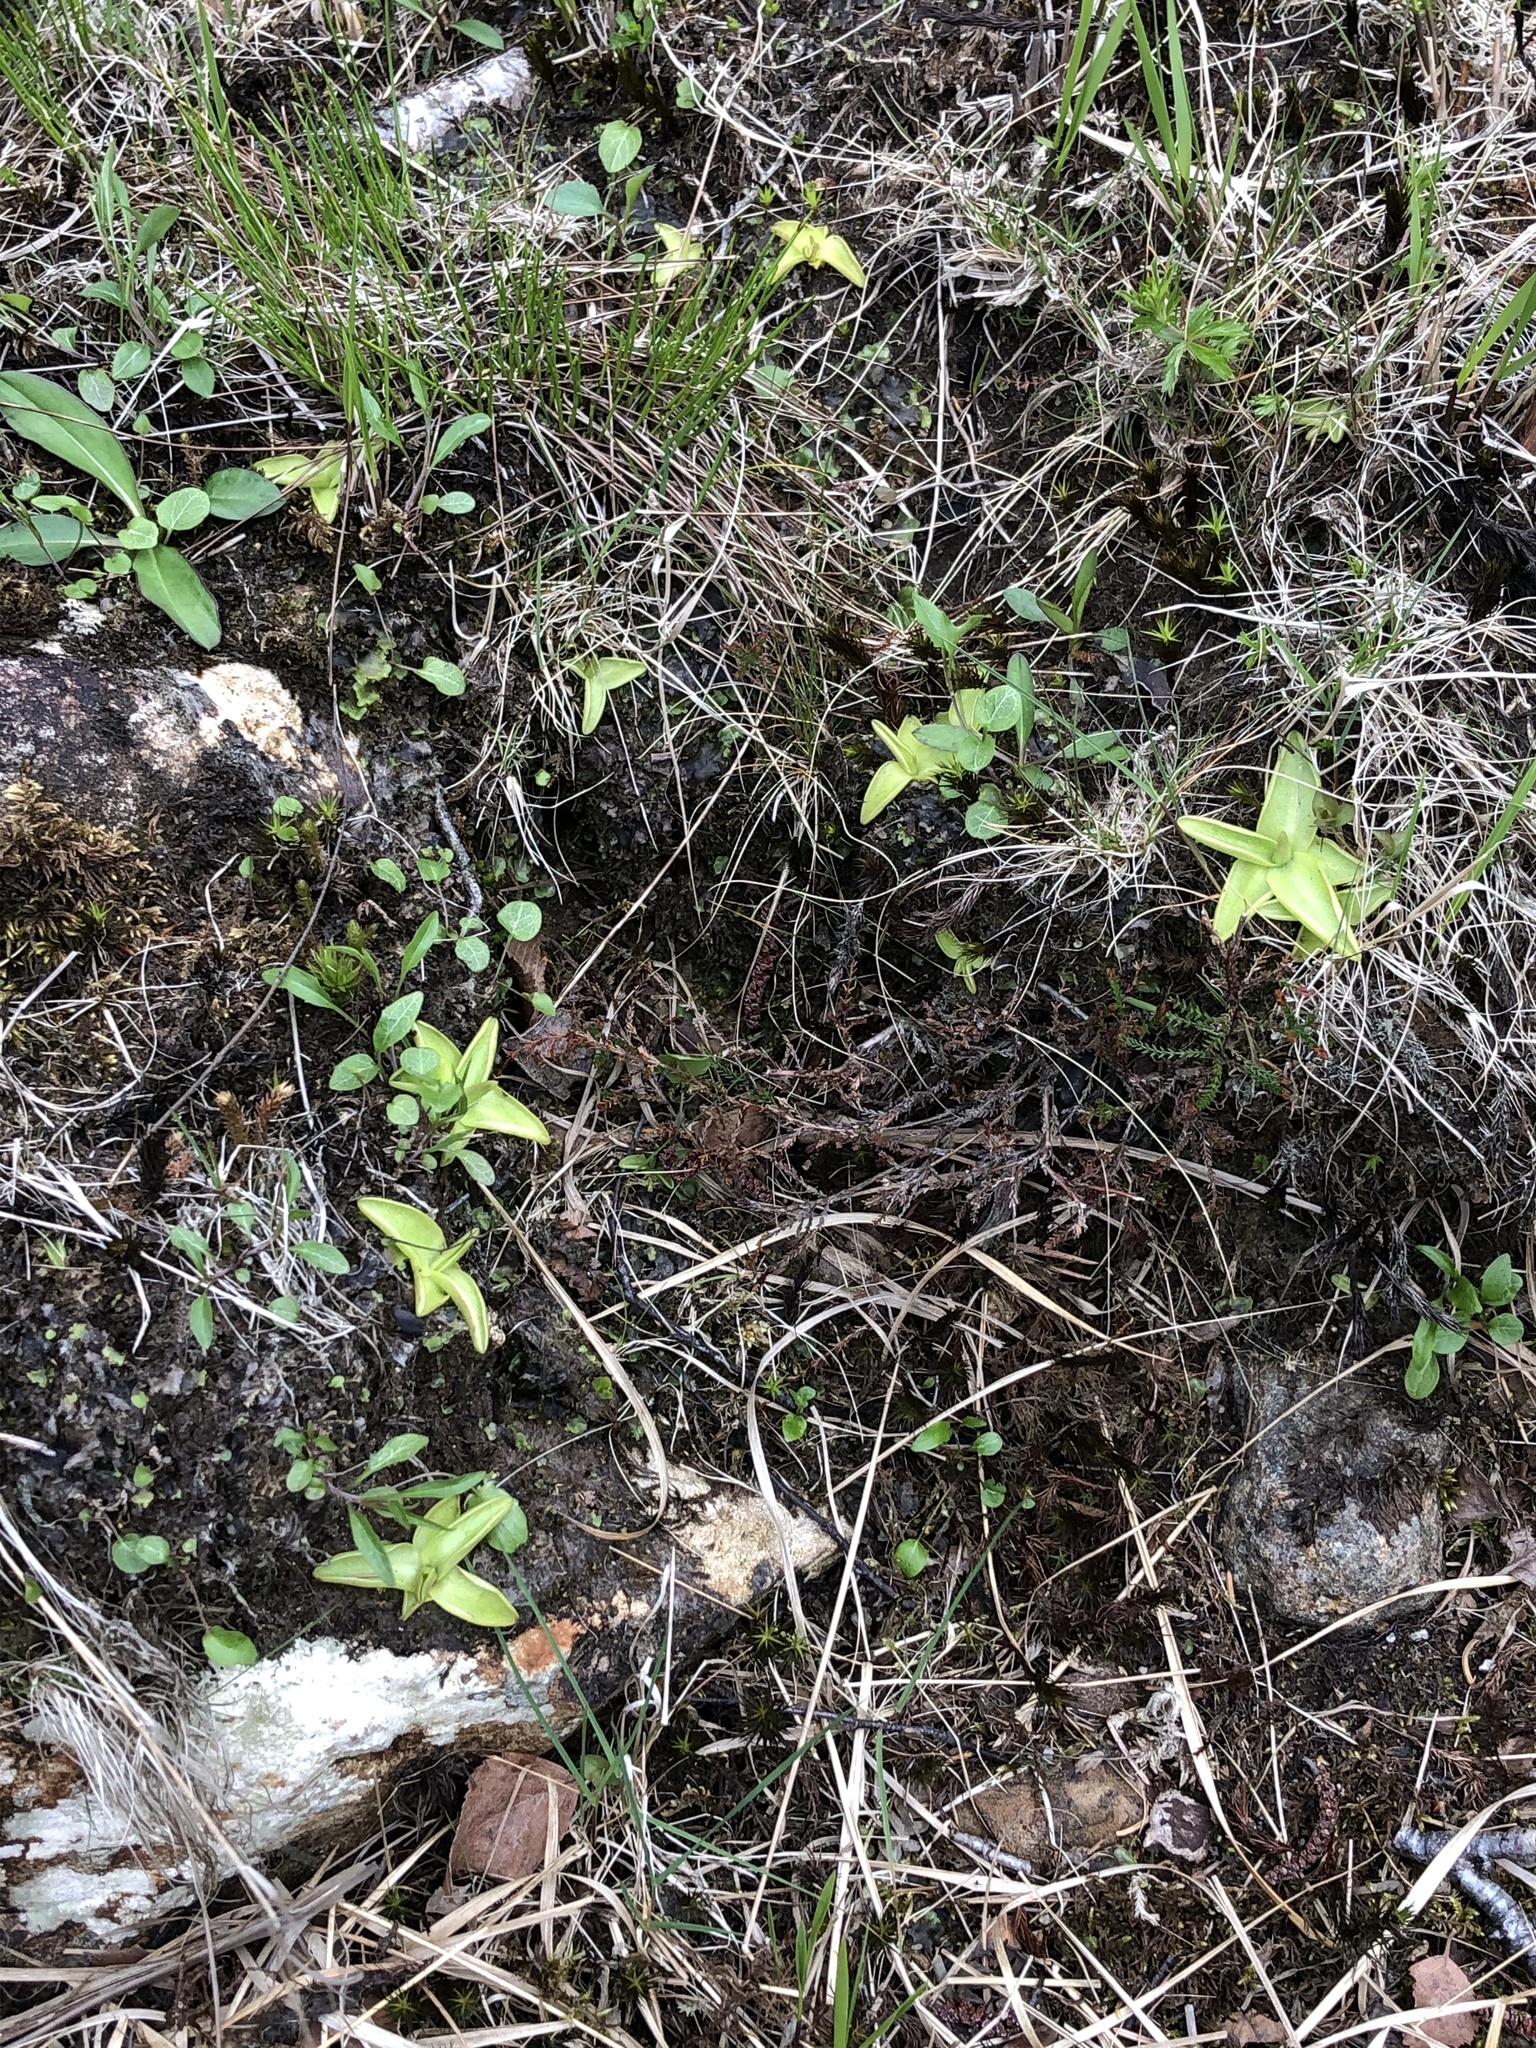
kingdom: Plantae
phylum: Tracheophyta
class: Magnoliopsida
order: Lamiales
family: Lentibulariaceae
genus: Pinguicula
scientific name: Pinguicula vulgaris
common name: Common butterwort
